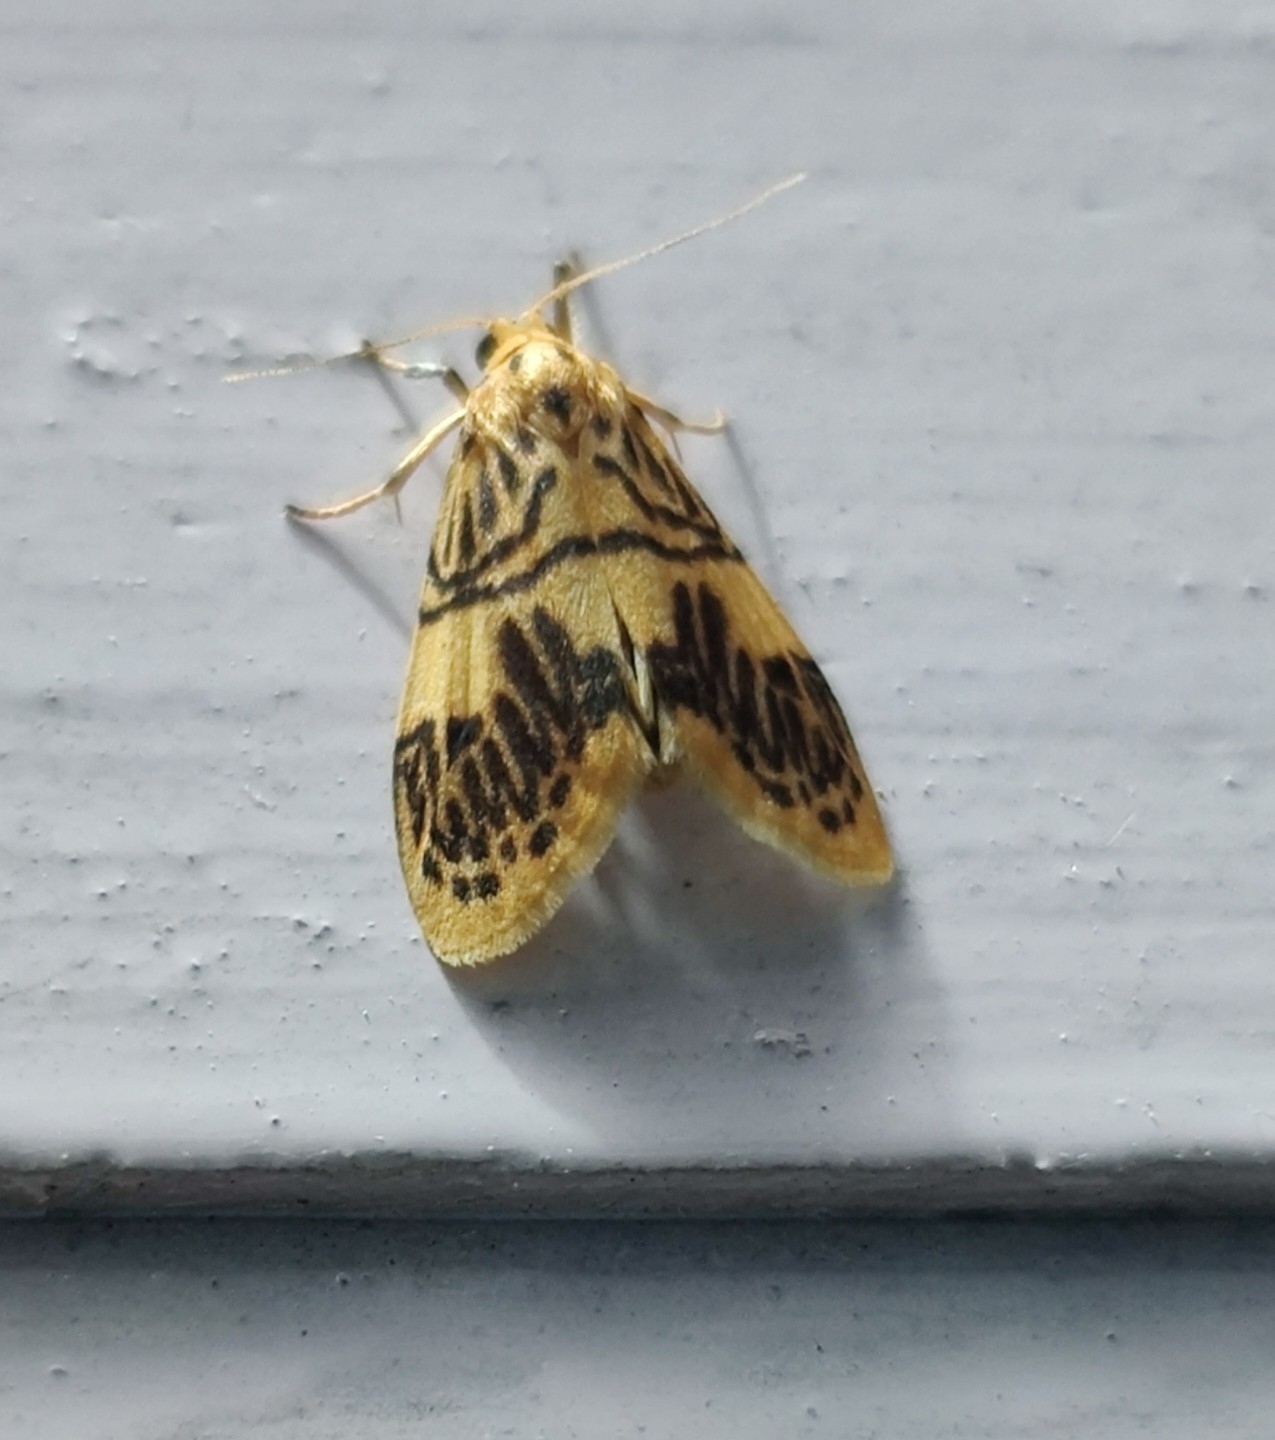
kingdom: Animalia
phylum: Arthropoda
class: Insecta
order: Lepidoptera
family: Erebidae
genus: Barsipennis
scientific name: Barsipennis joshii
